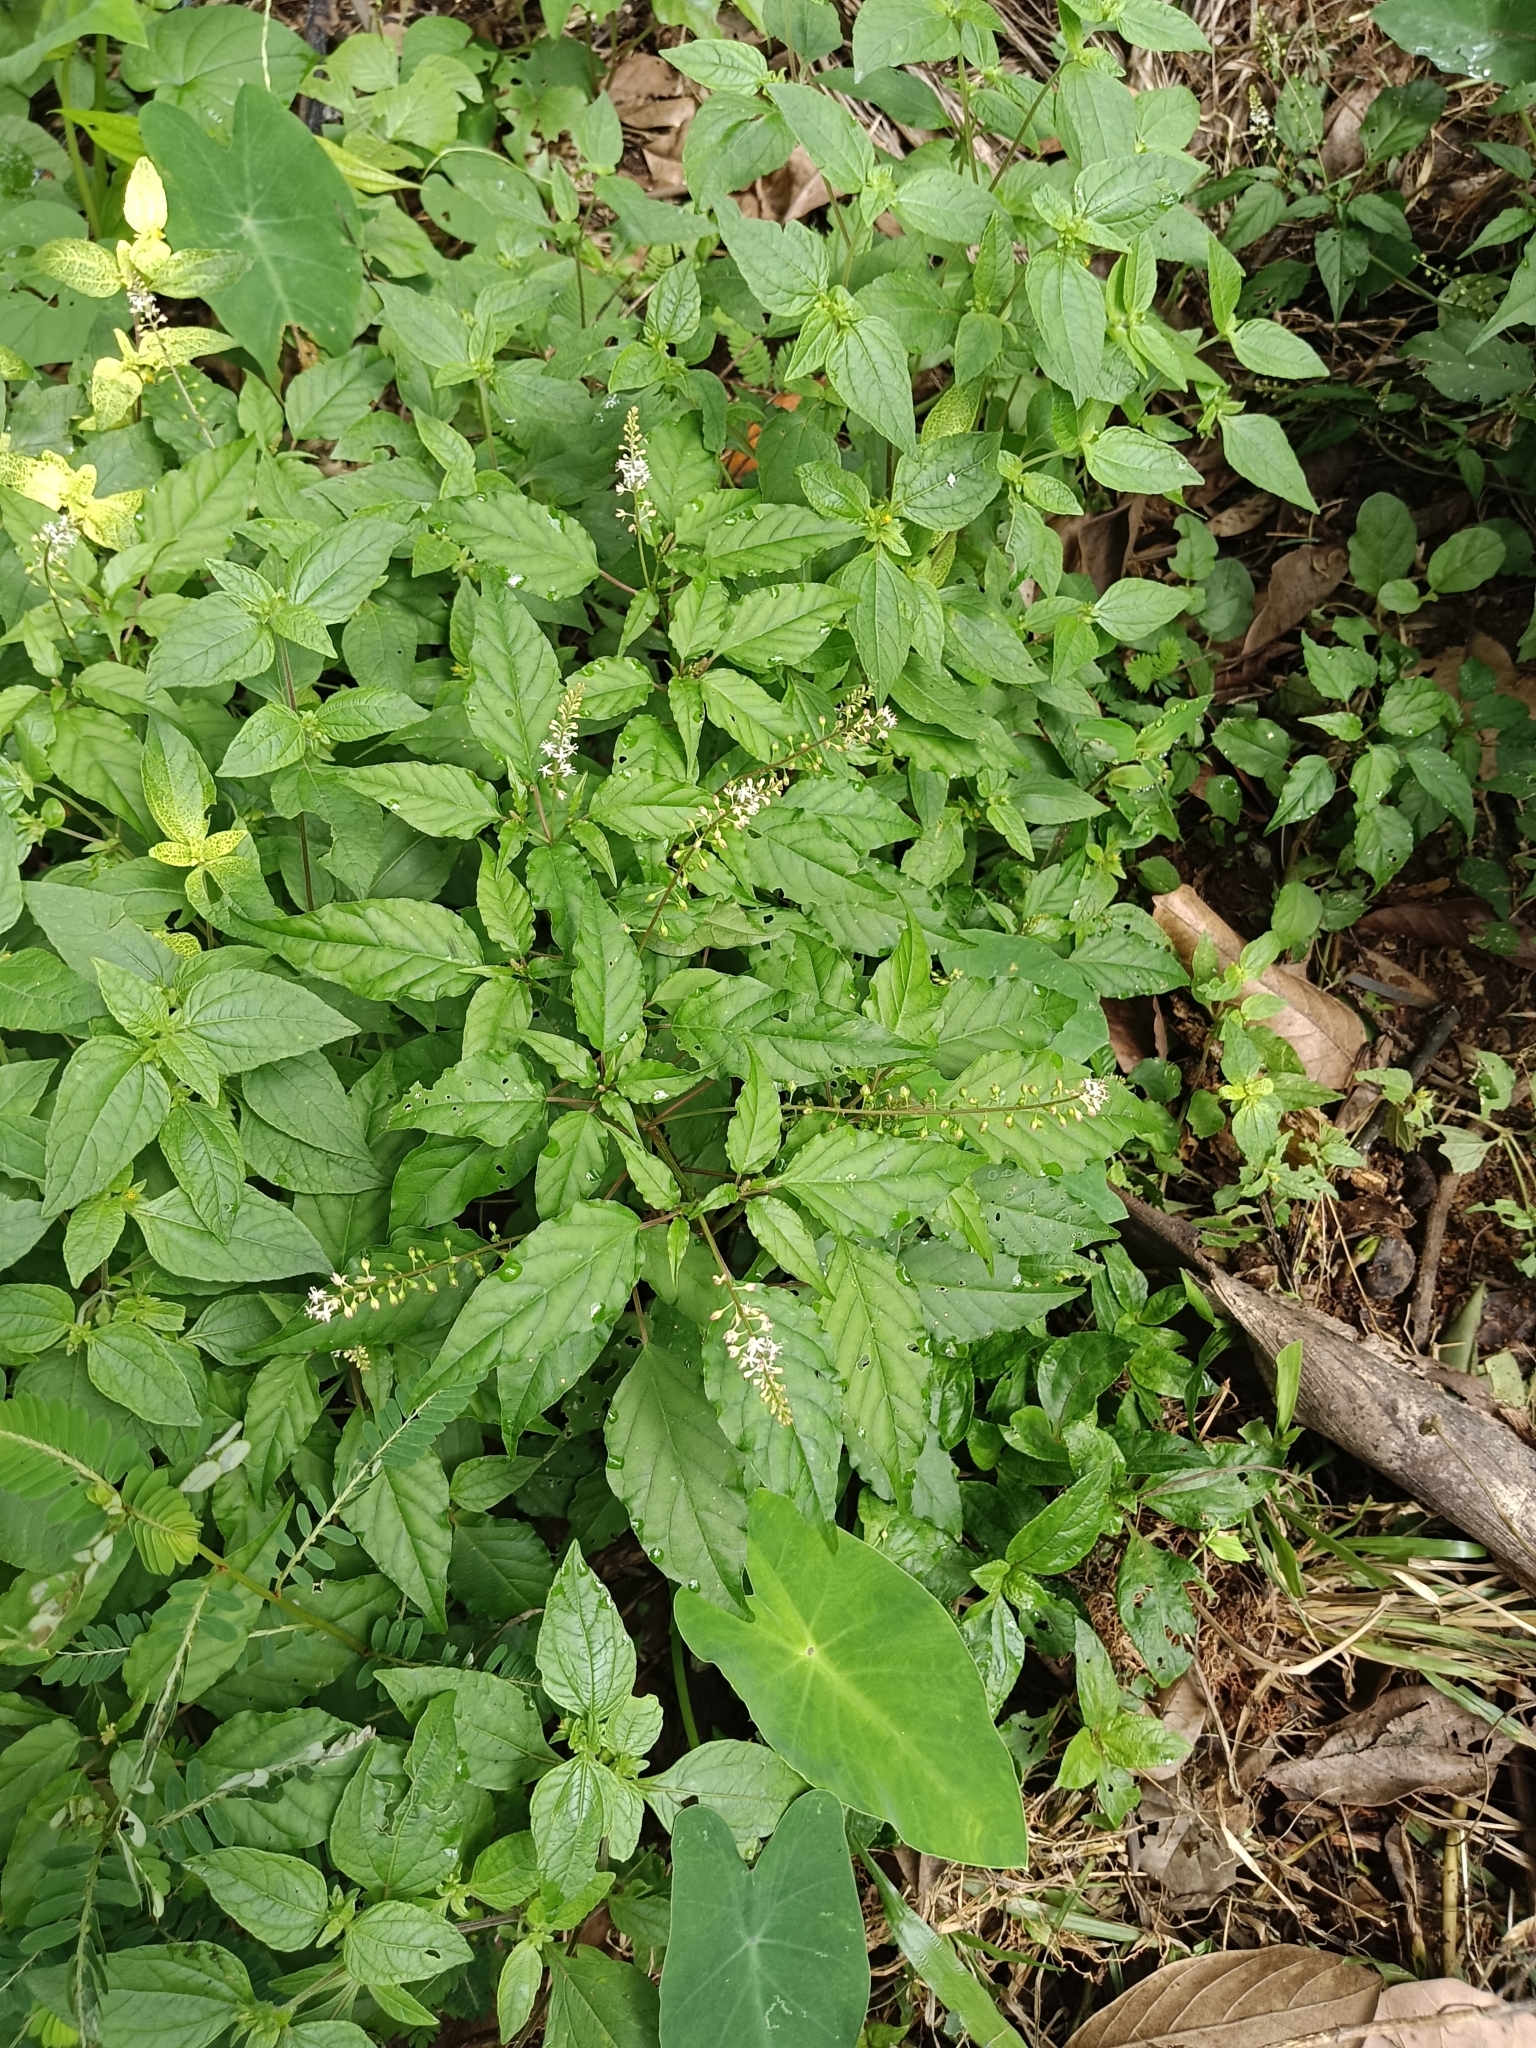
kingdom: Plantae
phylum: Tracheophyta
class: Magnoliopsida
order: Caryophyllales
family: Phytolaccaceae
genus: Rivina
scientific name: Rivina humilis
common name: Rougeplant
